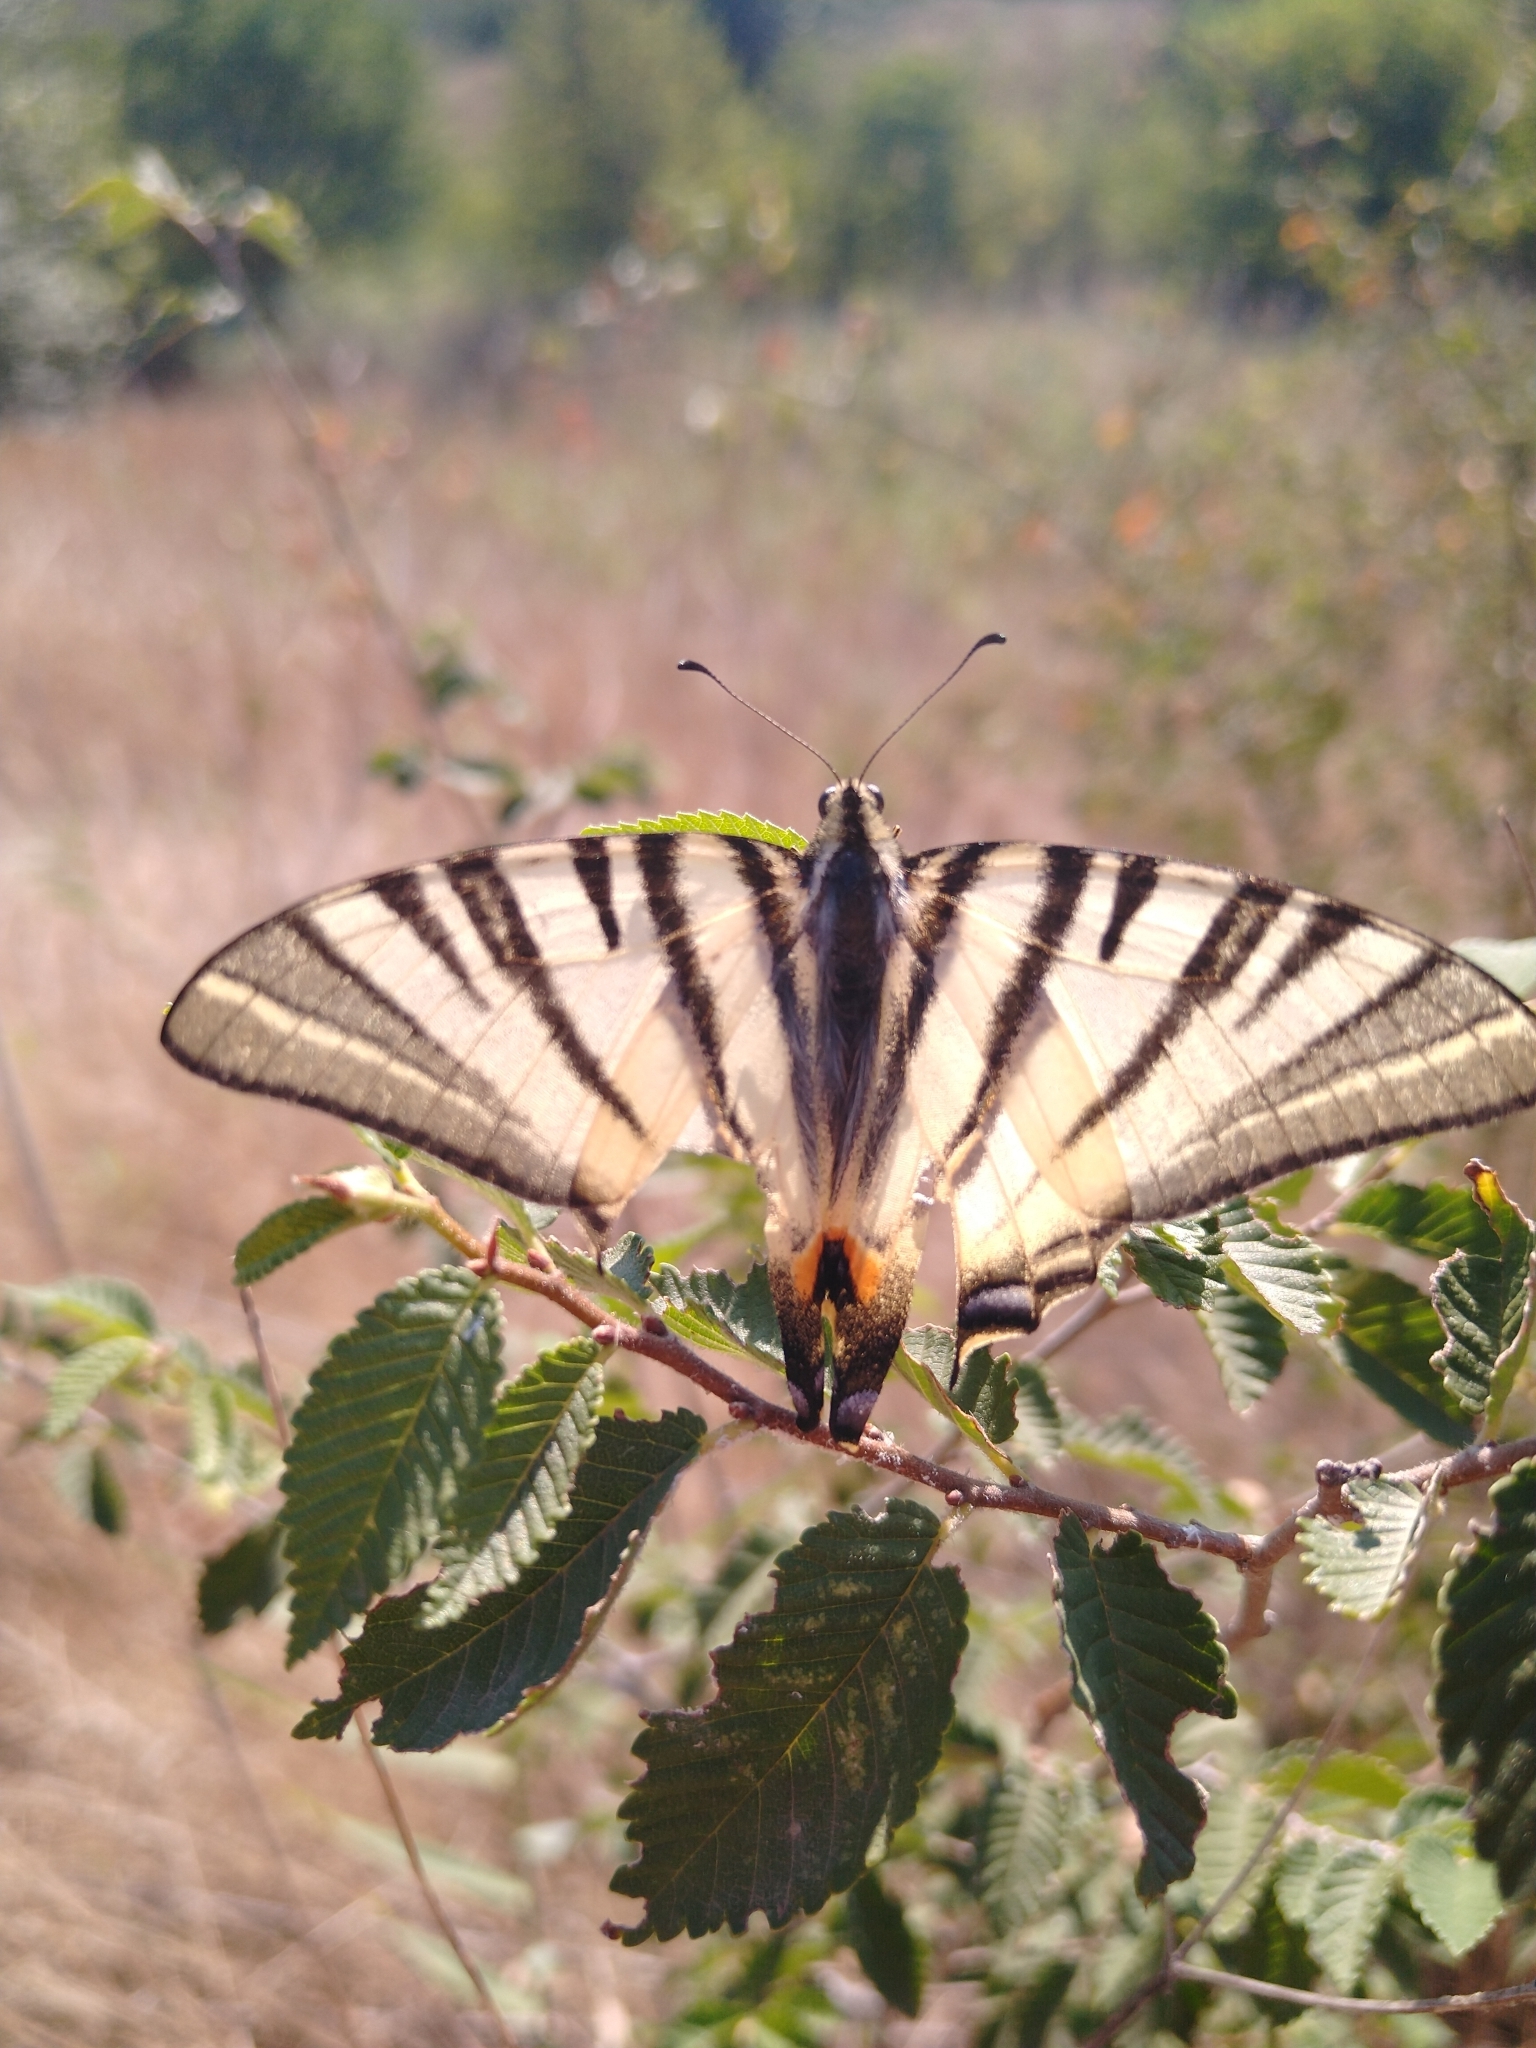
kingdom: Animalia
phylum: Arthropoda
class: Insecta
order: Lepidoptera
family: Papilionidae
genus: Iphiclides
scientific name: Iphiclides podalirius
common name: Scarce swallowtail
